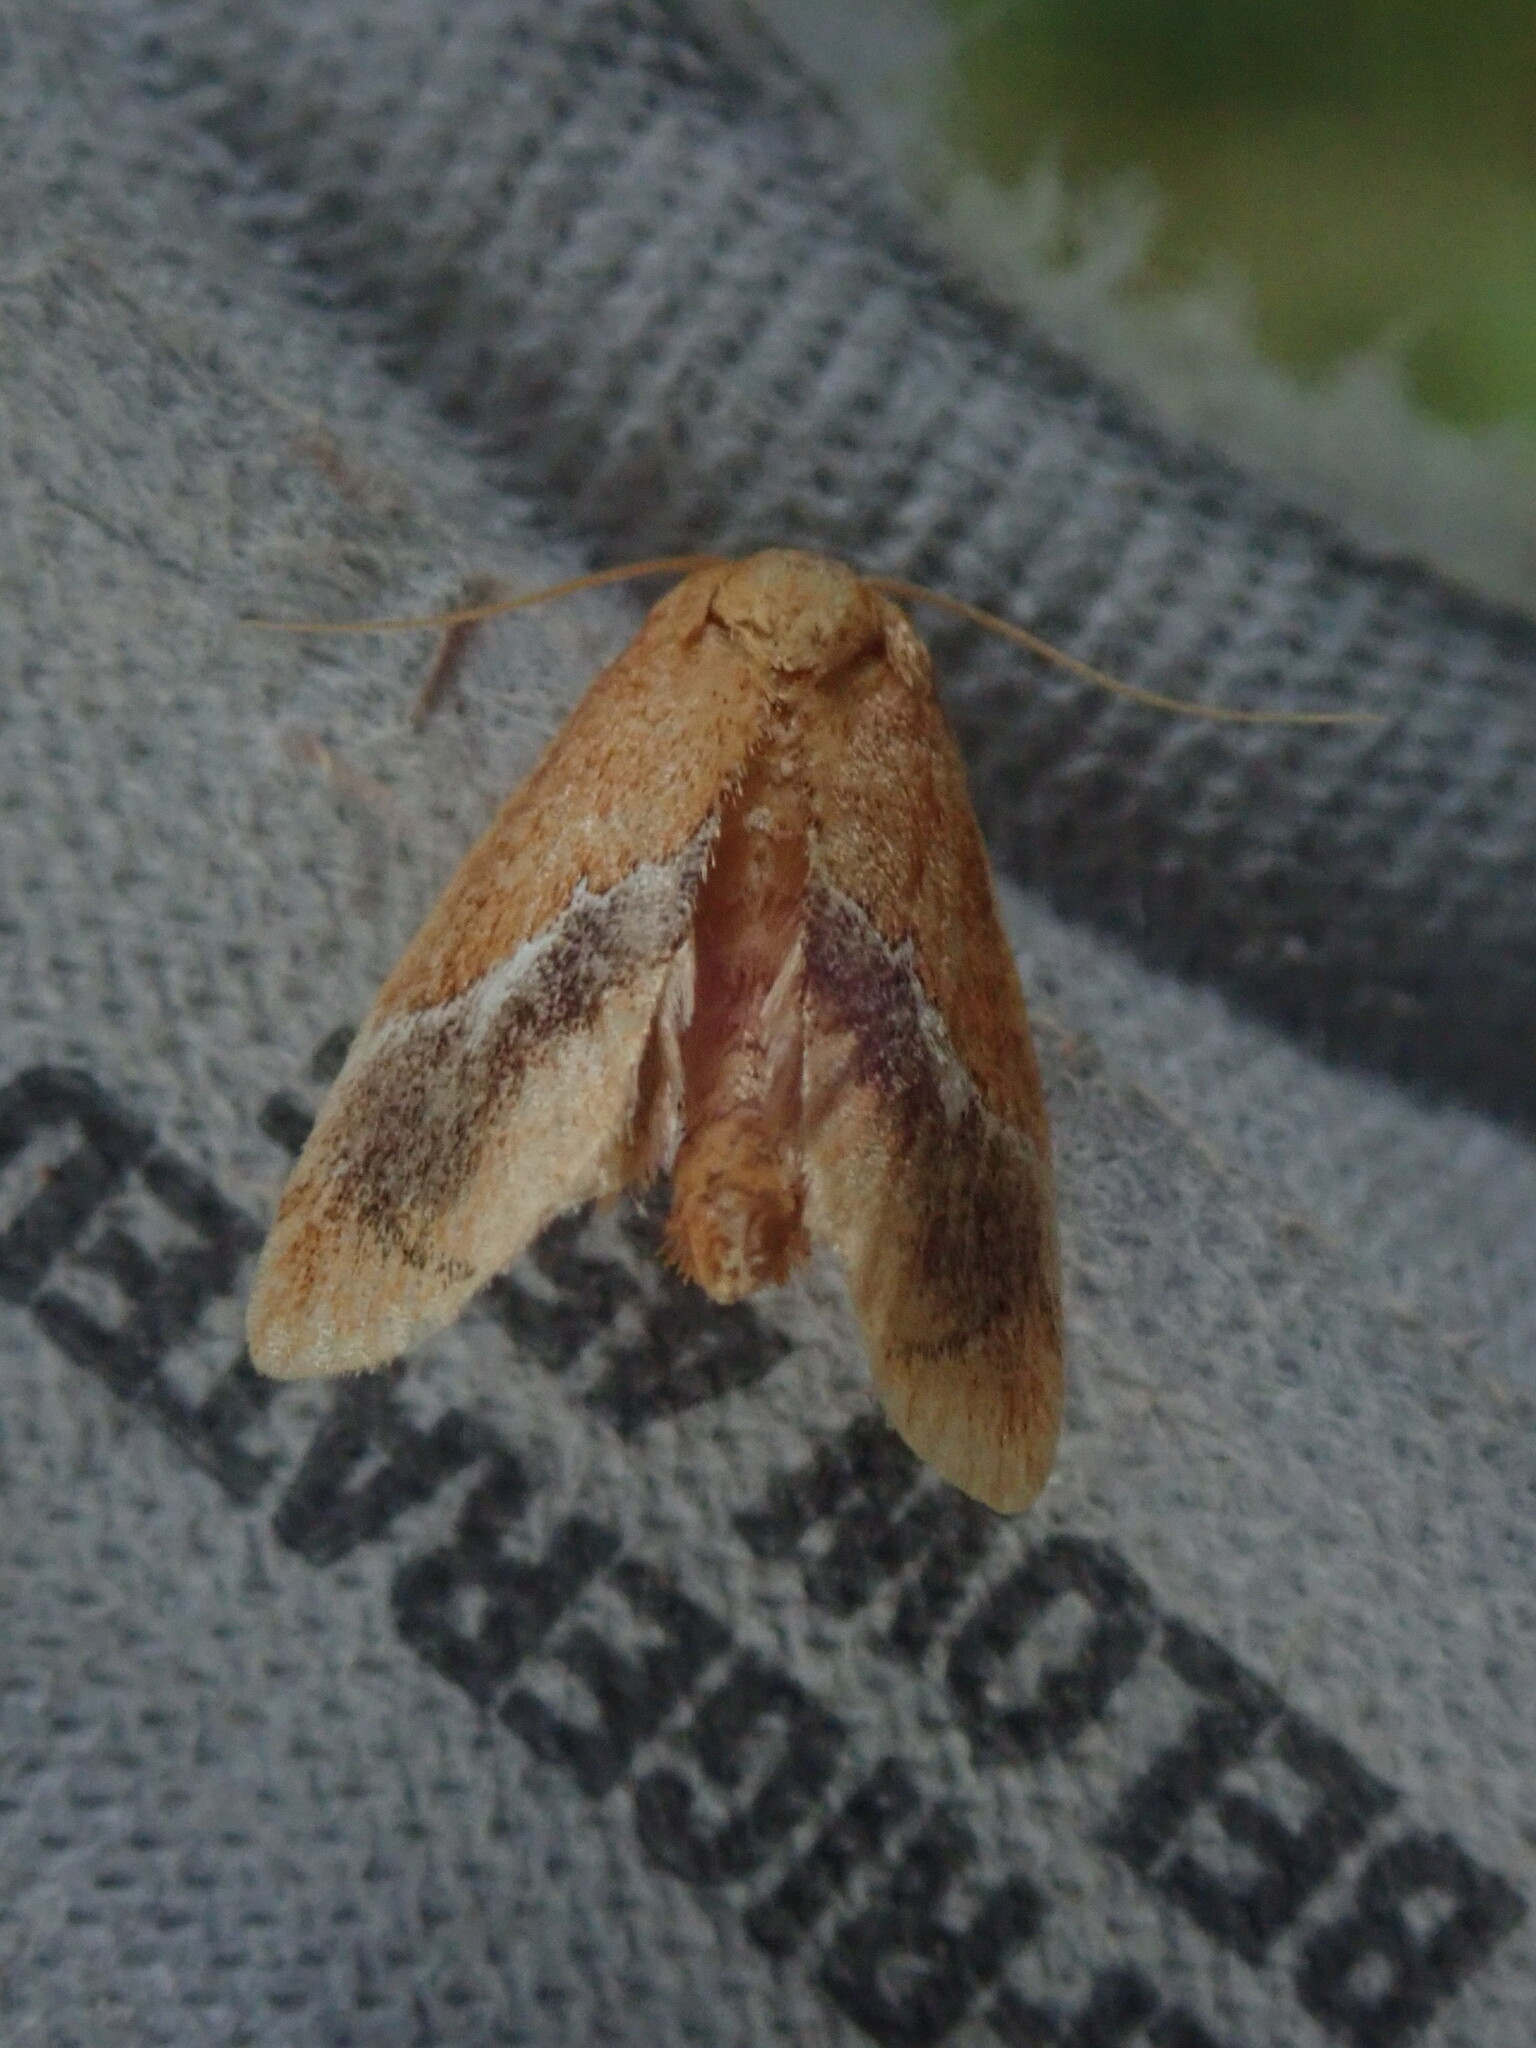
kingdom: Animalia
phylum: Arthropoda
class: Insecta
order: Lepidoptera
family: Limacodidae
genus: Lithacodes
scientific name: Lithacodes fasciola
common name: Yellow-shouldered slug moth
